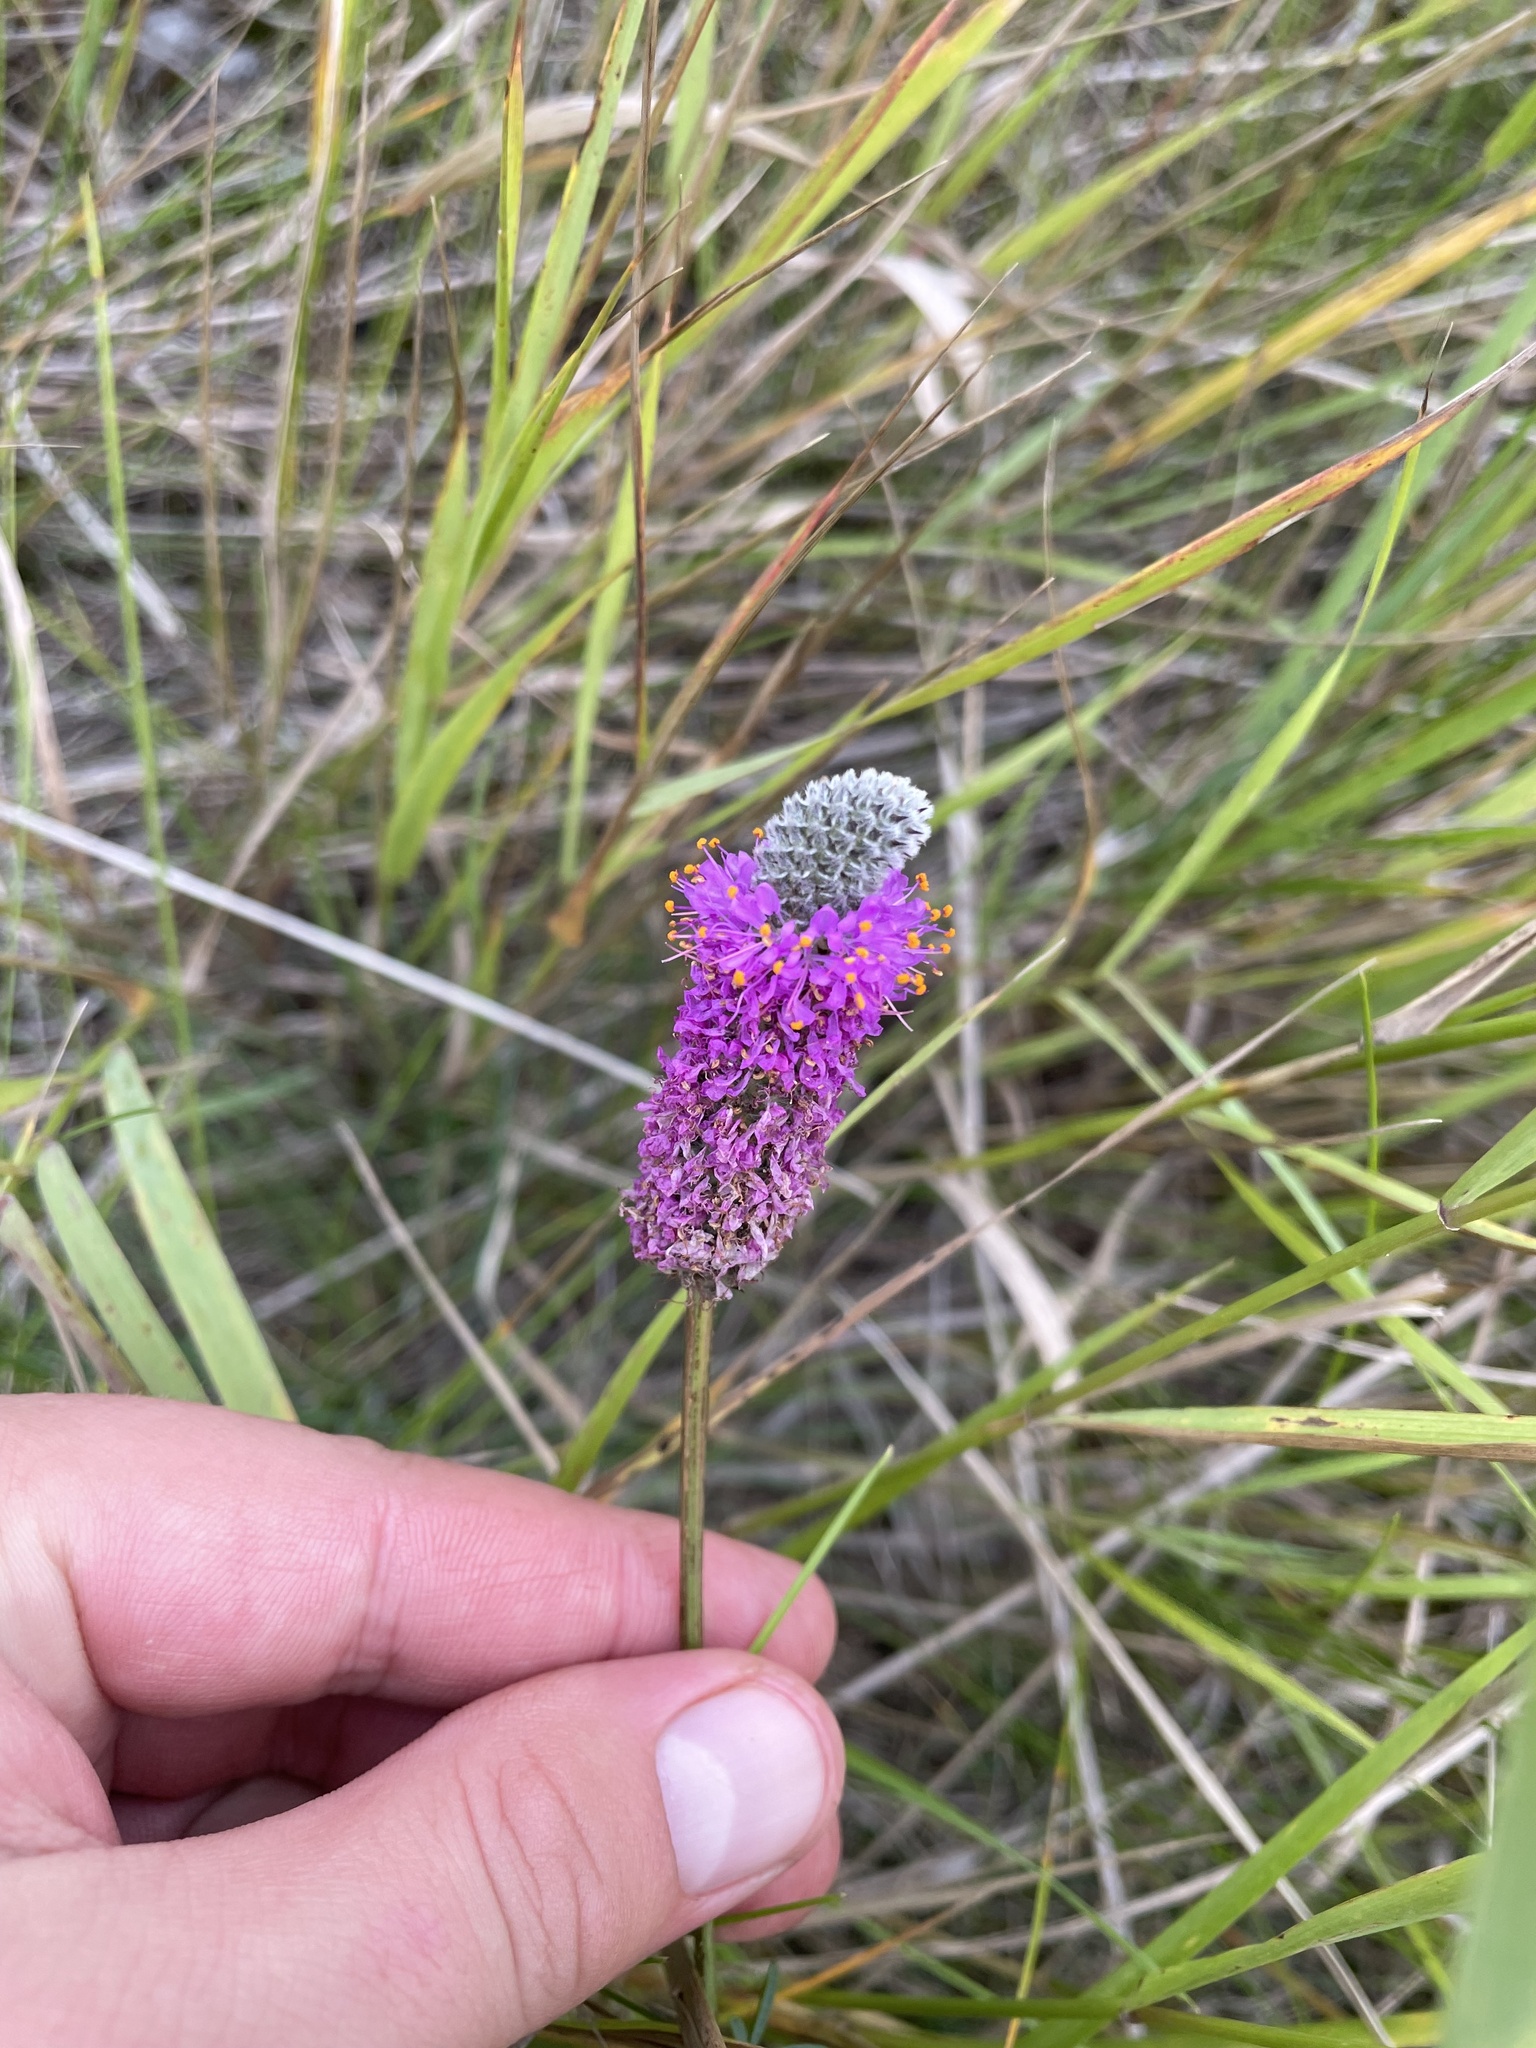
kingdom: Plantae
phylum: Tracheophyta
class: Magnoliopsida
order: Fabales
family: Fabaceae
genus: Dalea
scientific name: Dalea purpurea
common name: Purple prairie-clover
